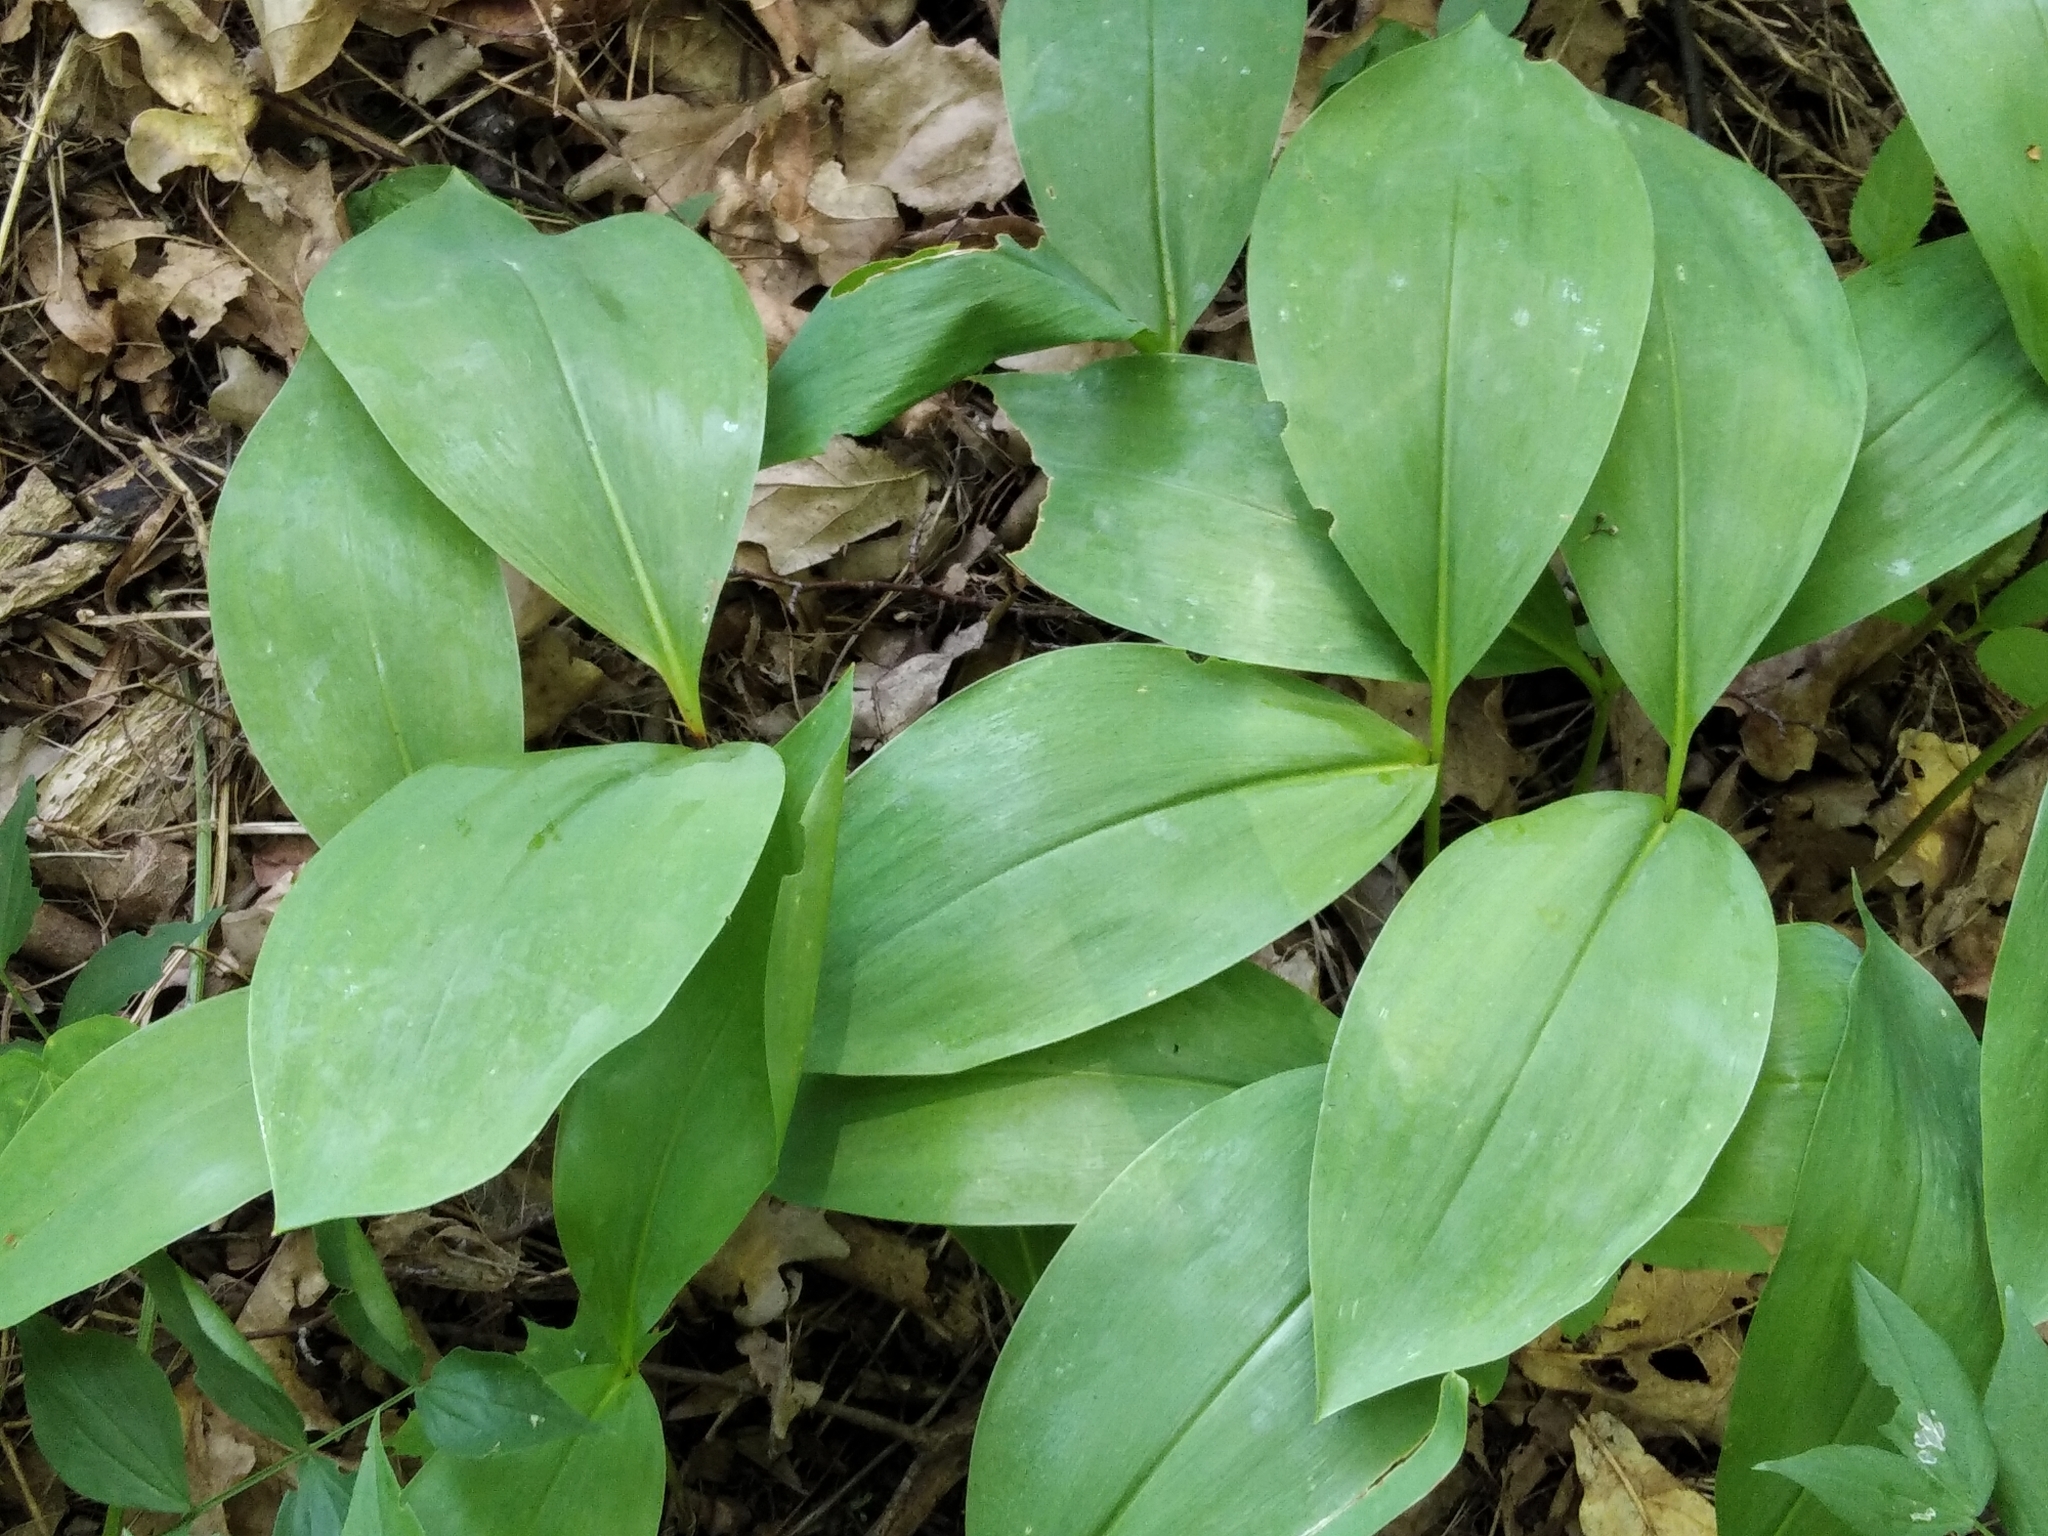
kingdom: Plantae
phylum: Tracheophyta
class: Liliopsida
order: Asparagales
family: Asparagaceae
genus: Convallaria
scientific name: Convallaria majalis
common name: Lily-of-the-valley
